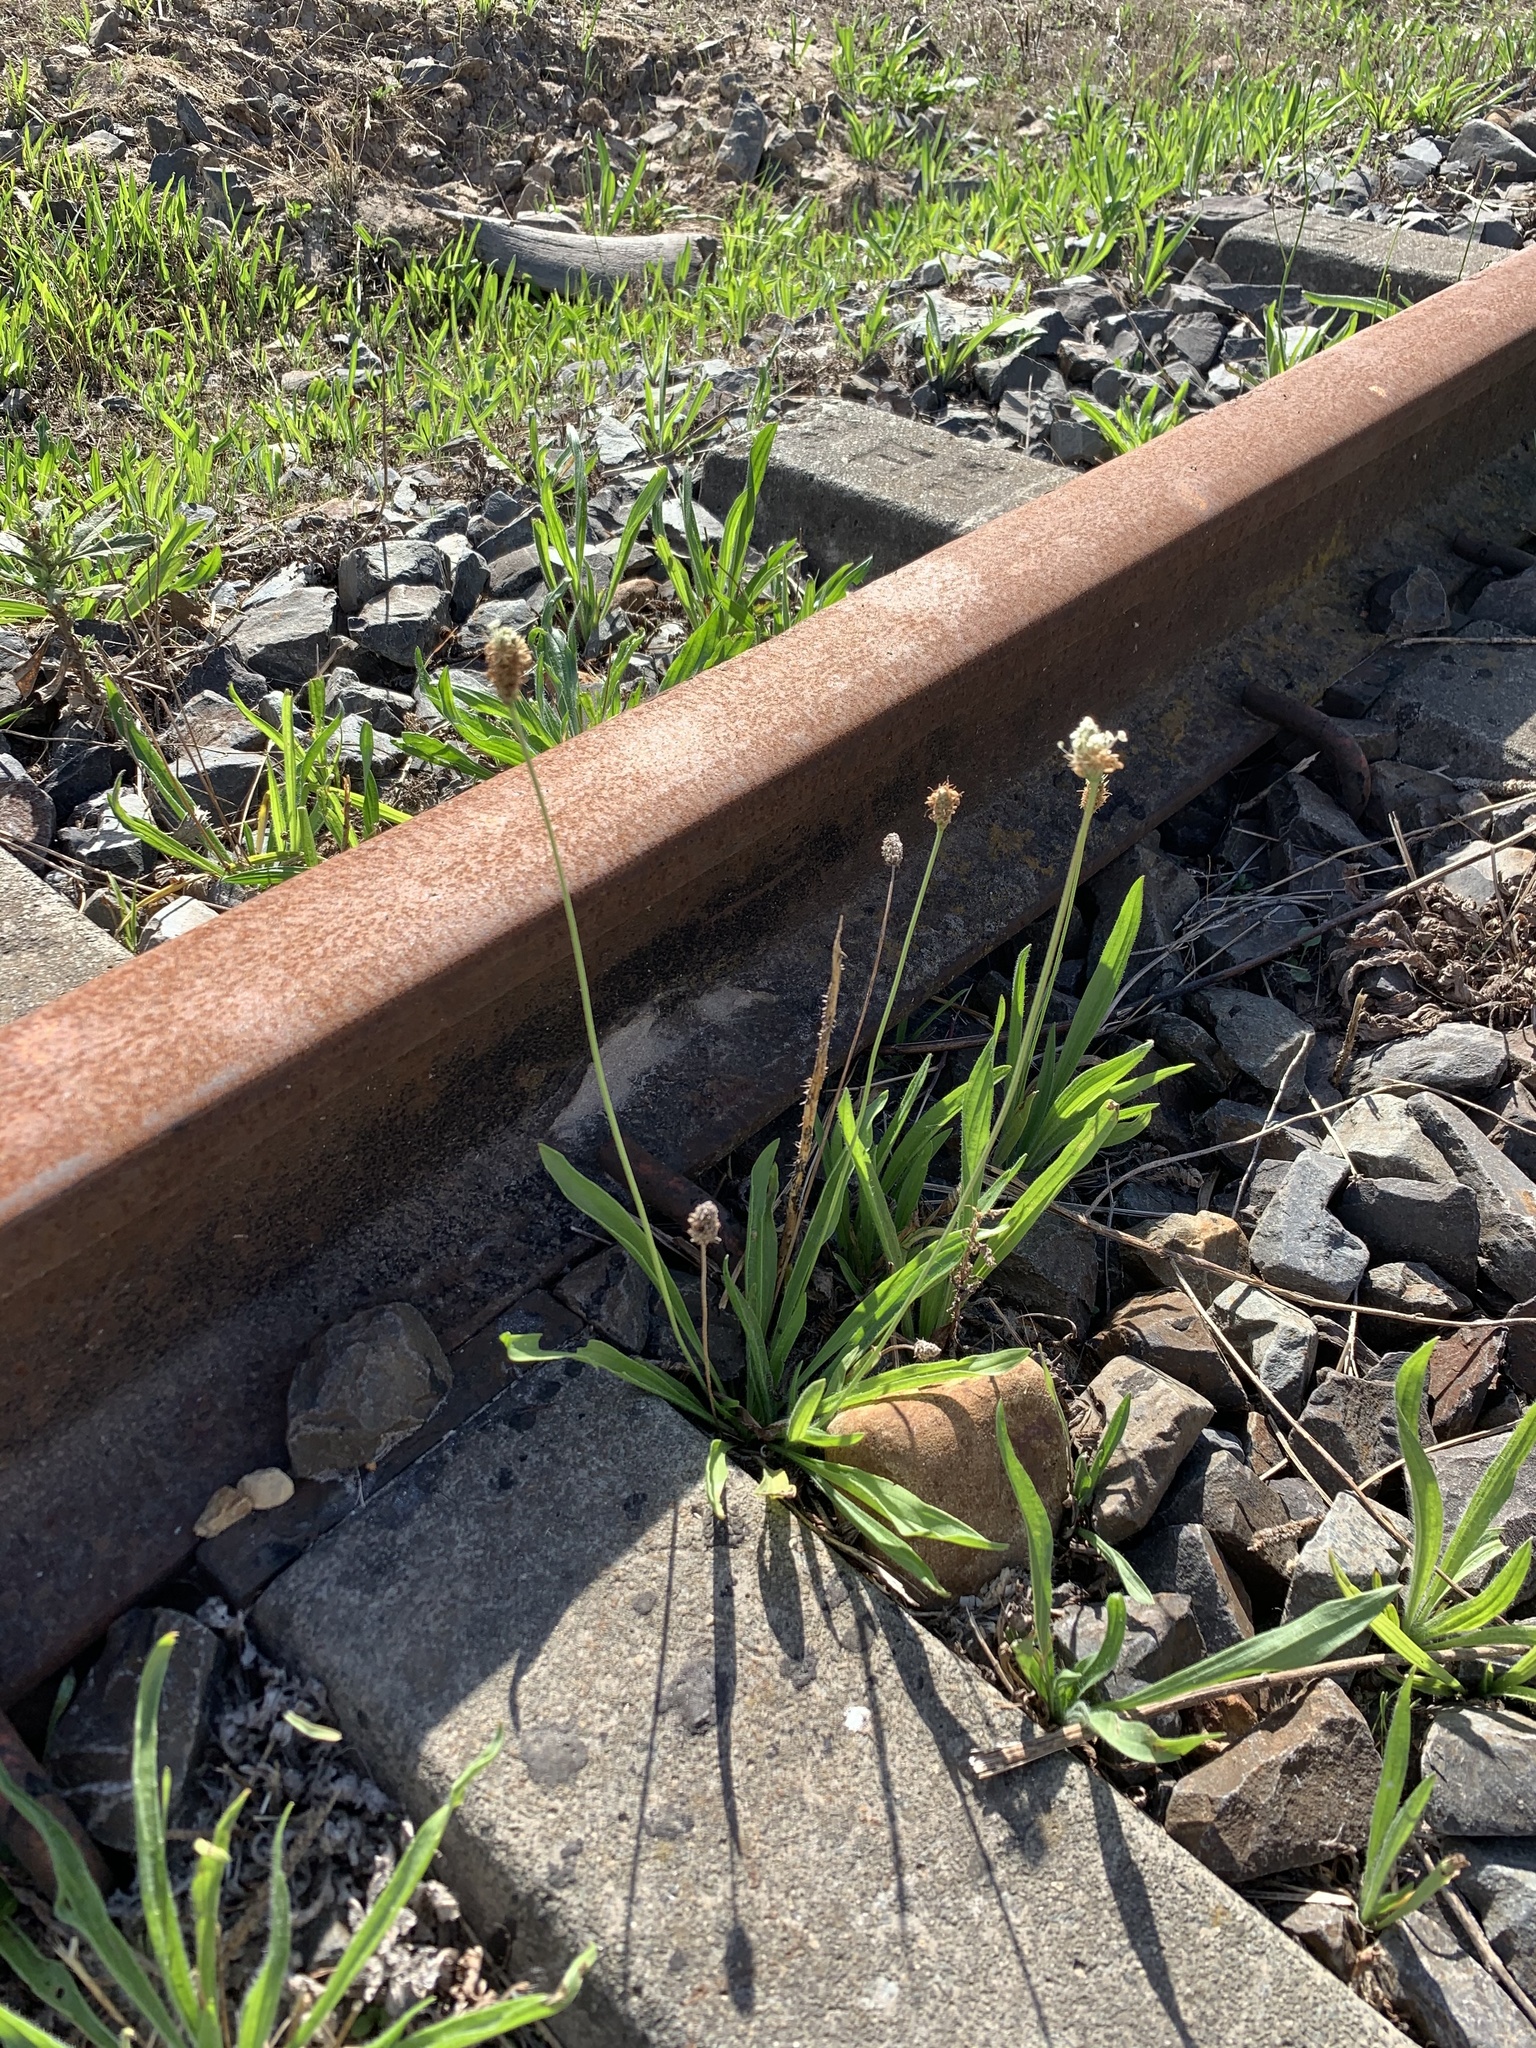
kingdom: Plantae
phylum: Tracheophyta
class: Magnoliopsida
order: Lamiales
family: Plantaginaceae
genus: Plantago
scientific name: Plantago lanceolata
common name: Ribwort plantain
